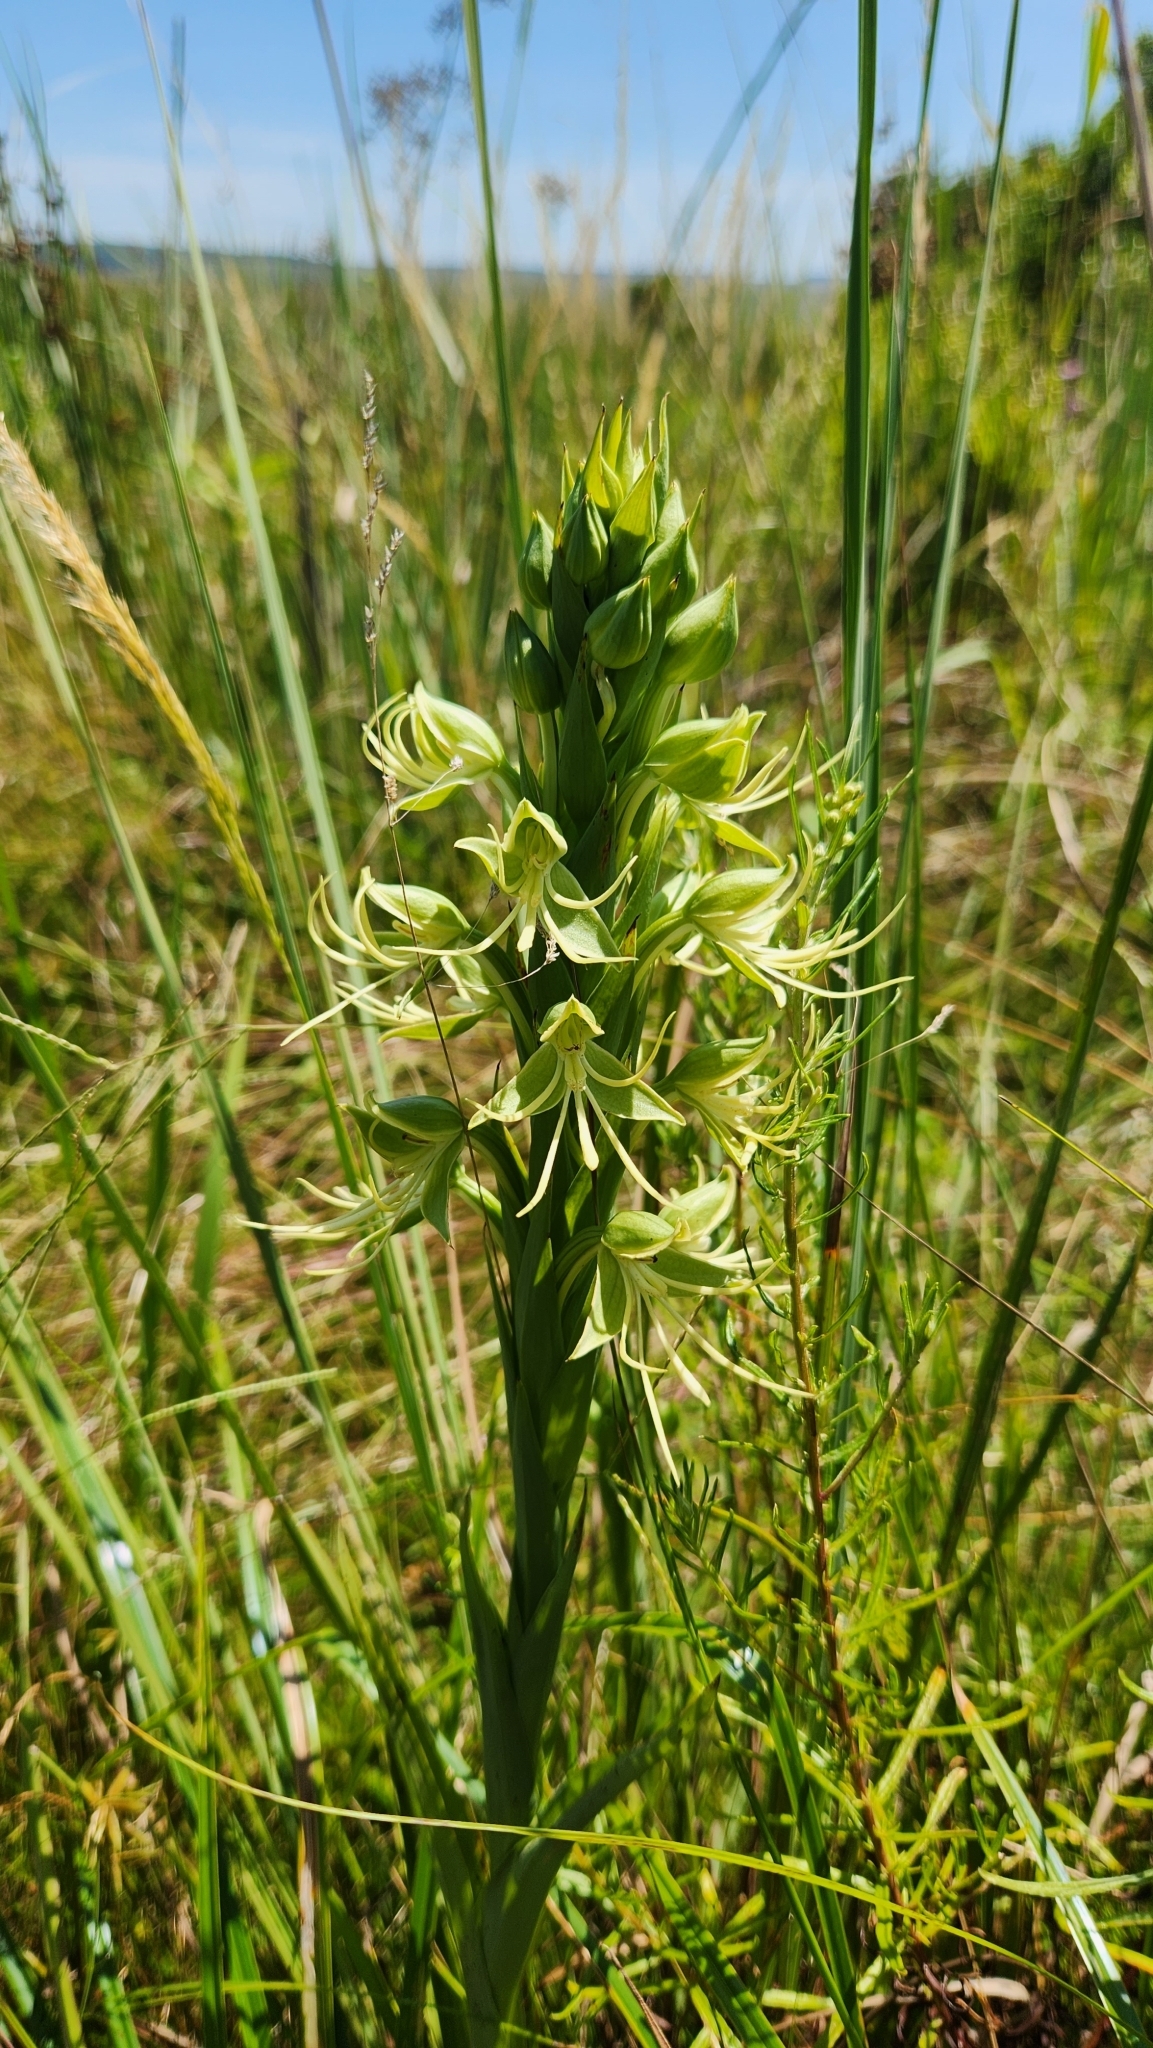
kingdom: Plantae
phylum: Tracheophyta
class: Liliopsida
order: Asparagales
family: Orchidaceae
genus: Habenaria
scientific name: Habenaria macronectar
